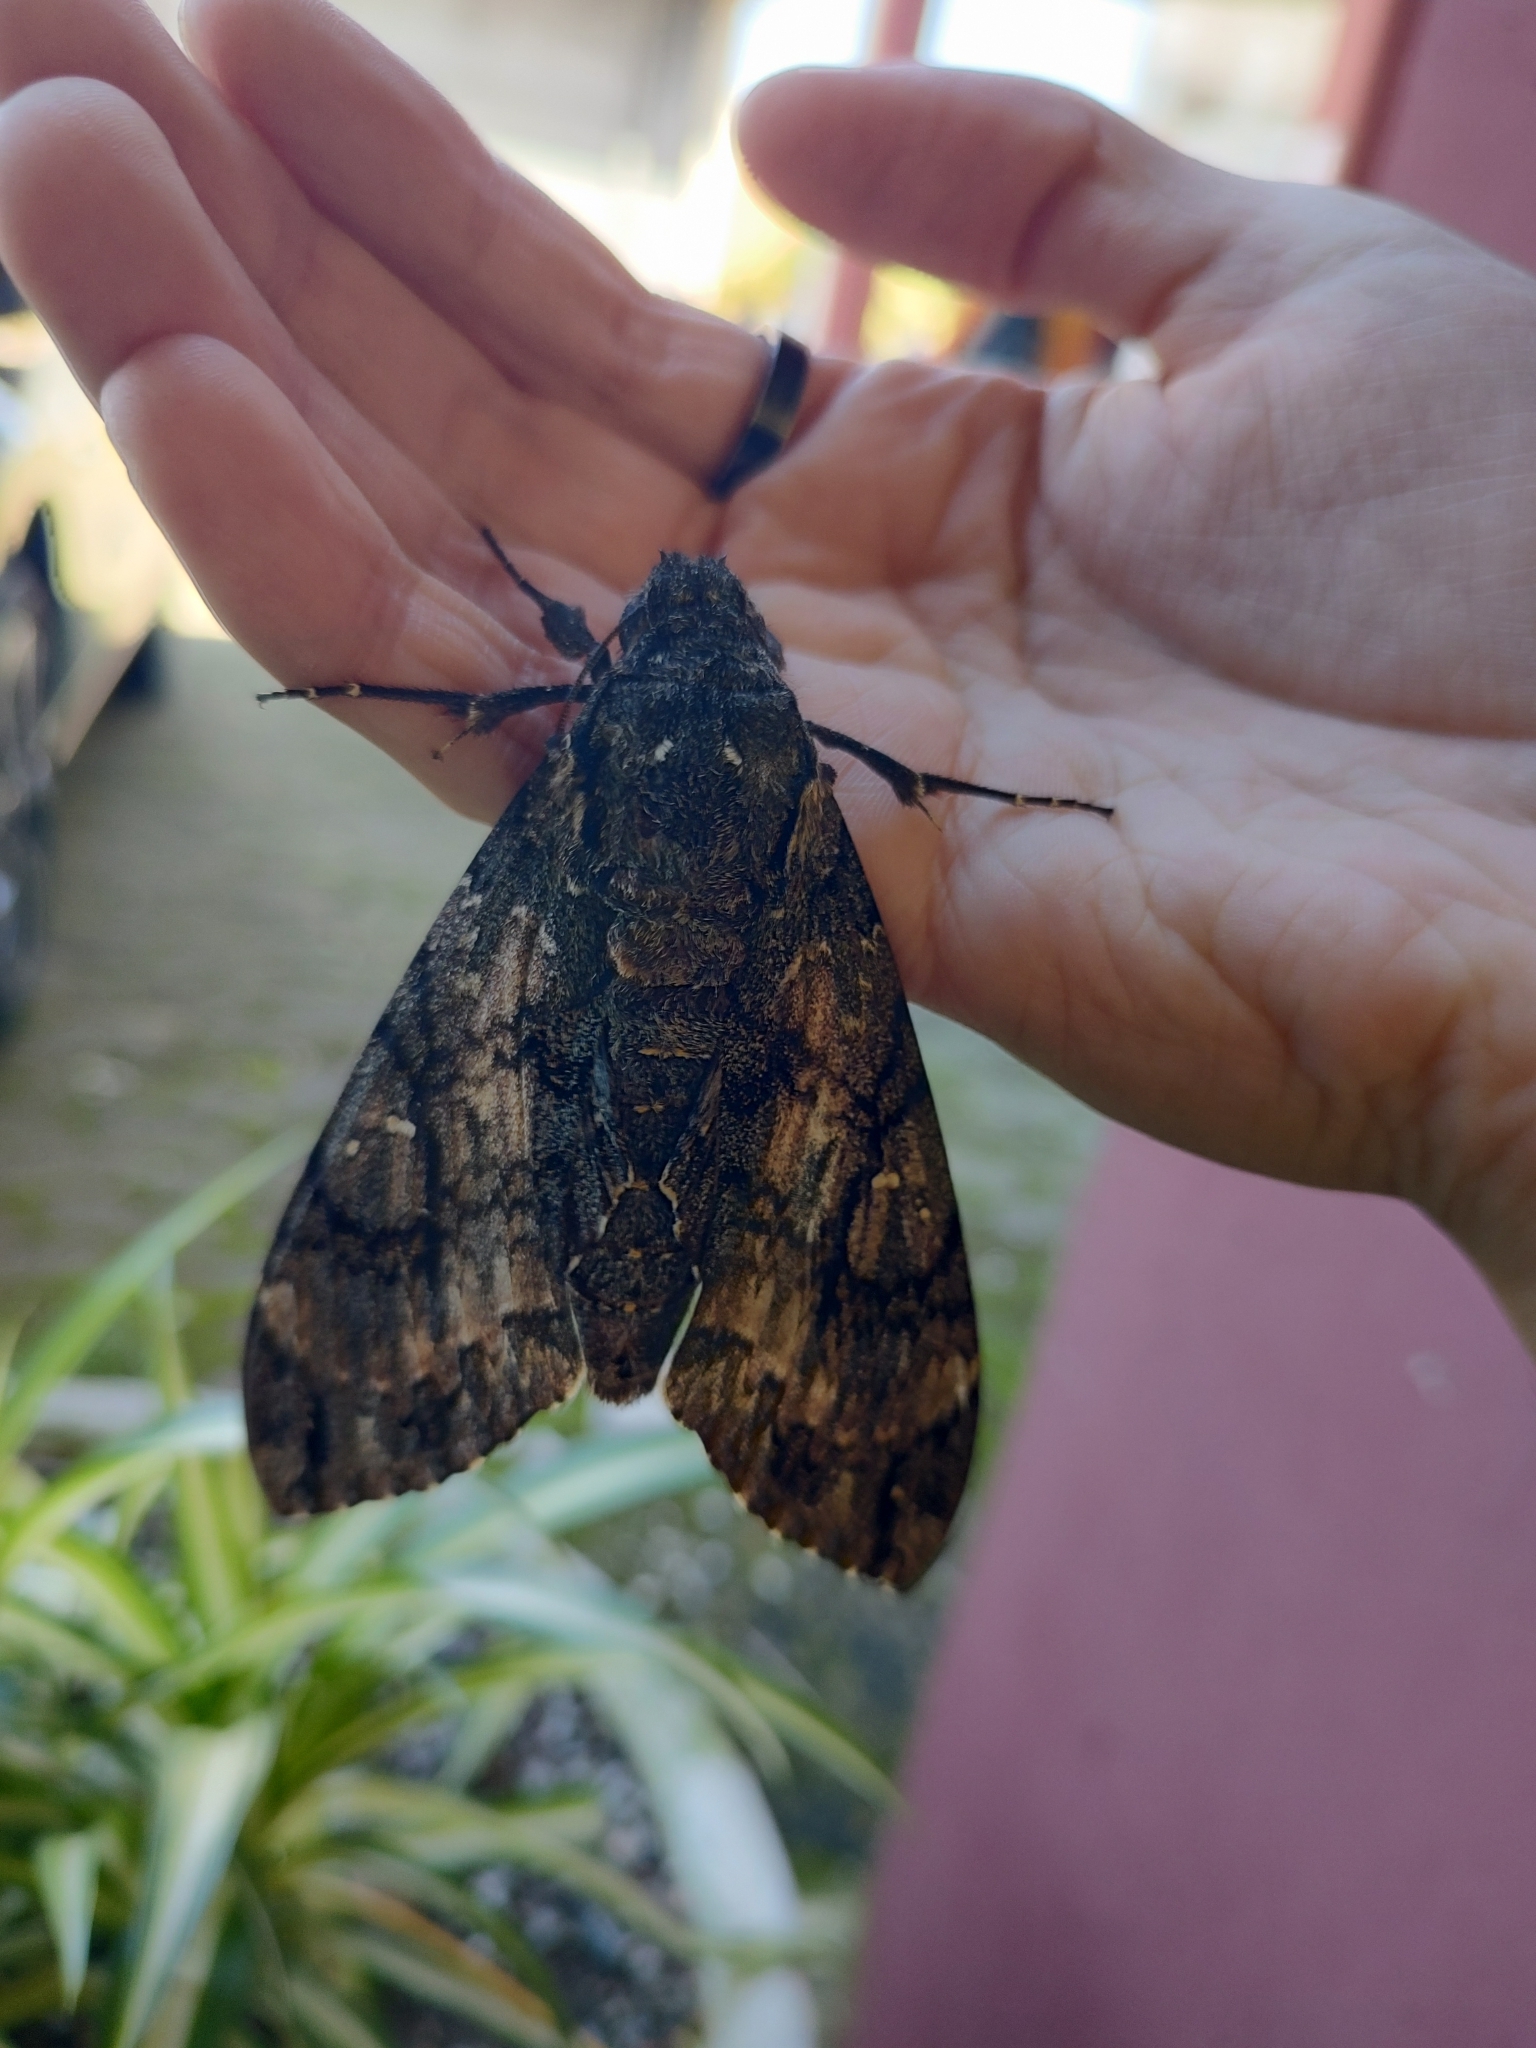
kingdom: Animalia
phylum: Arthropoda
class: Insecta
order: Lepidoptera
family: Sphingidae
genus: Cocytius
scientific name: Cocytius antaeus
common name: Giant sphinx
